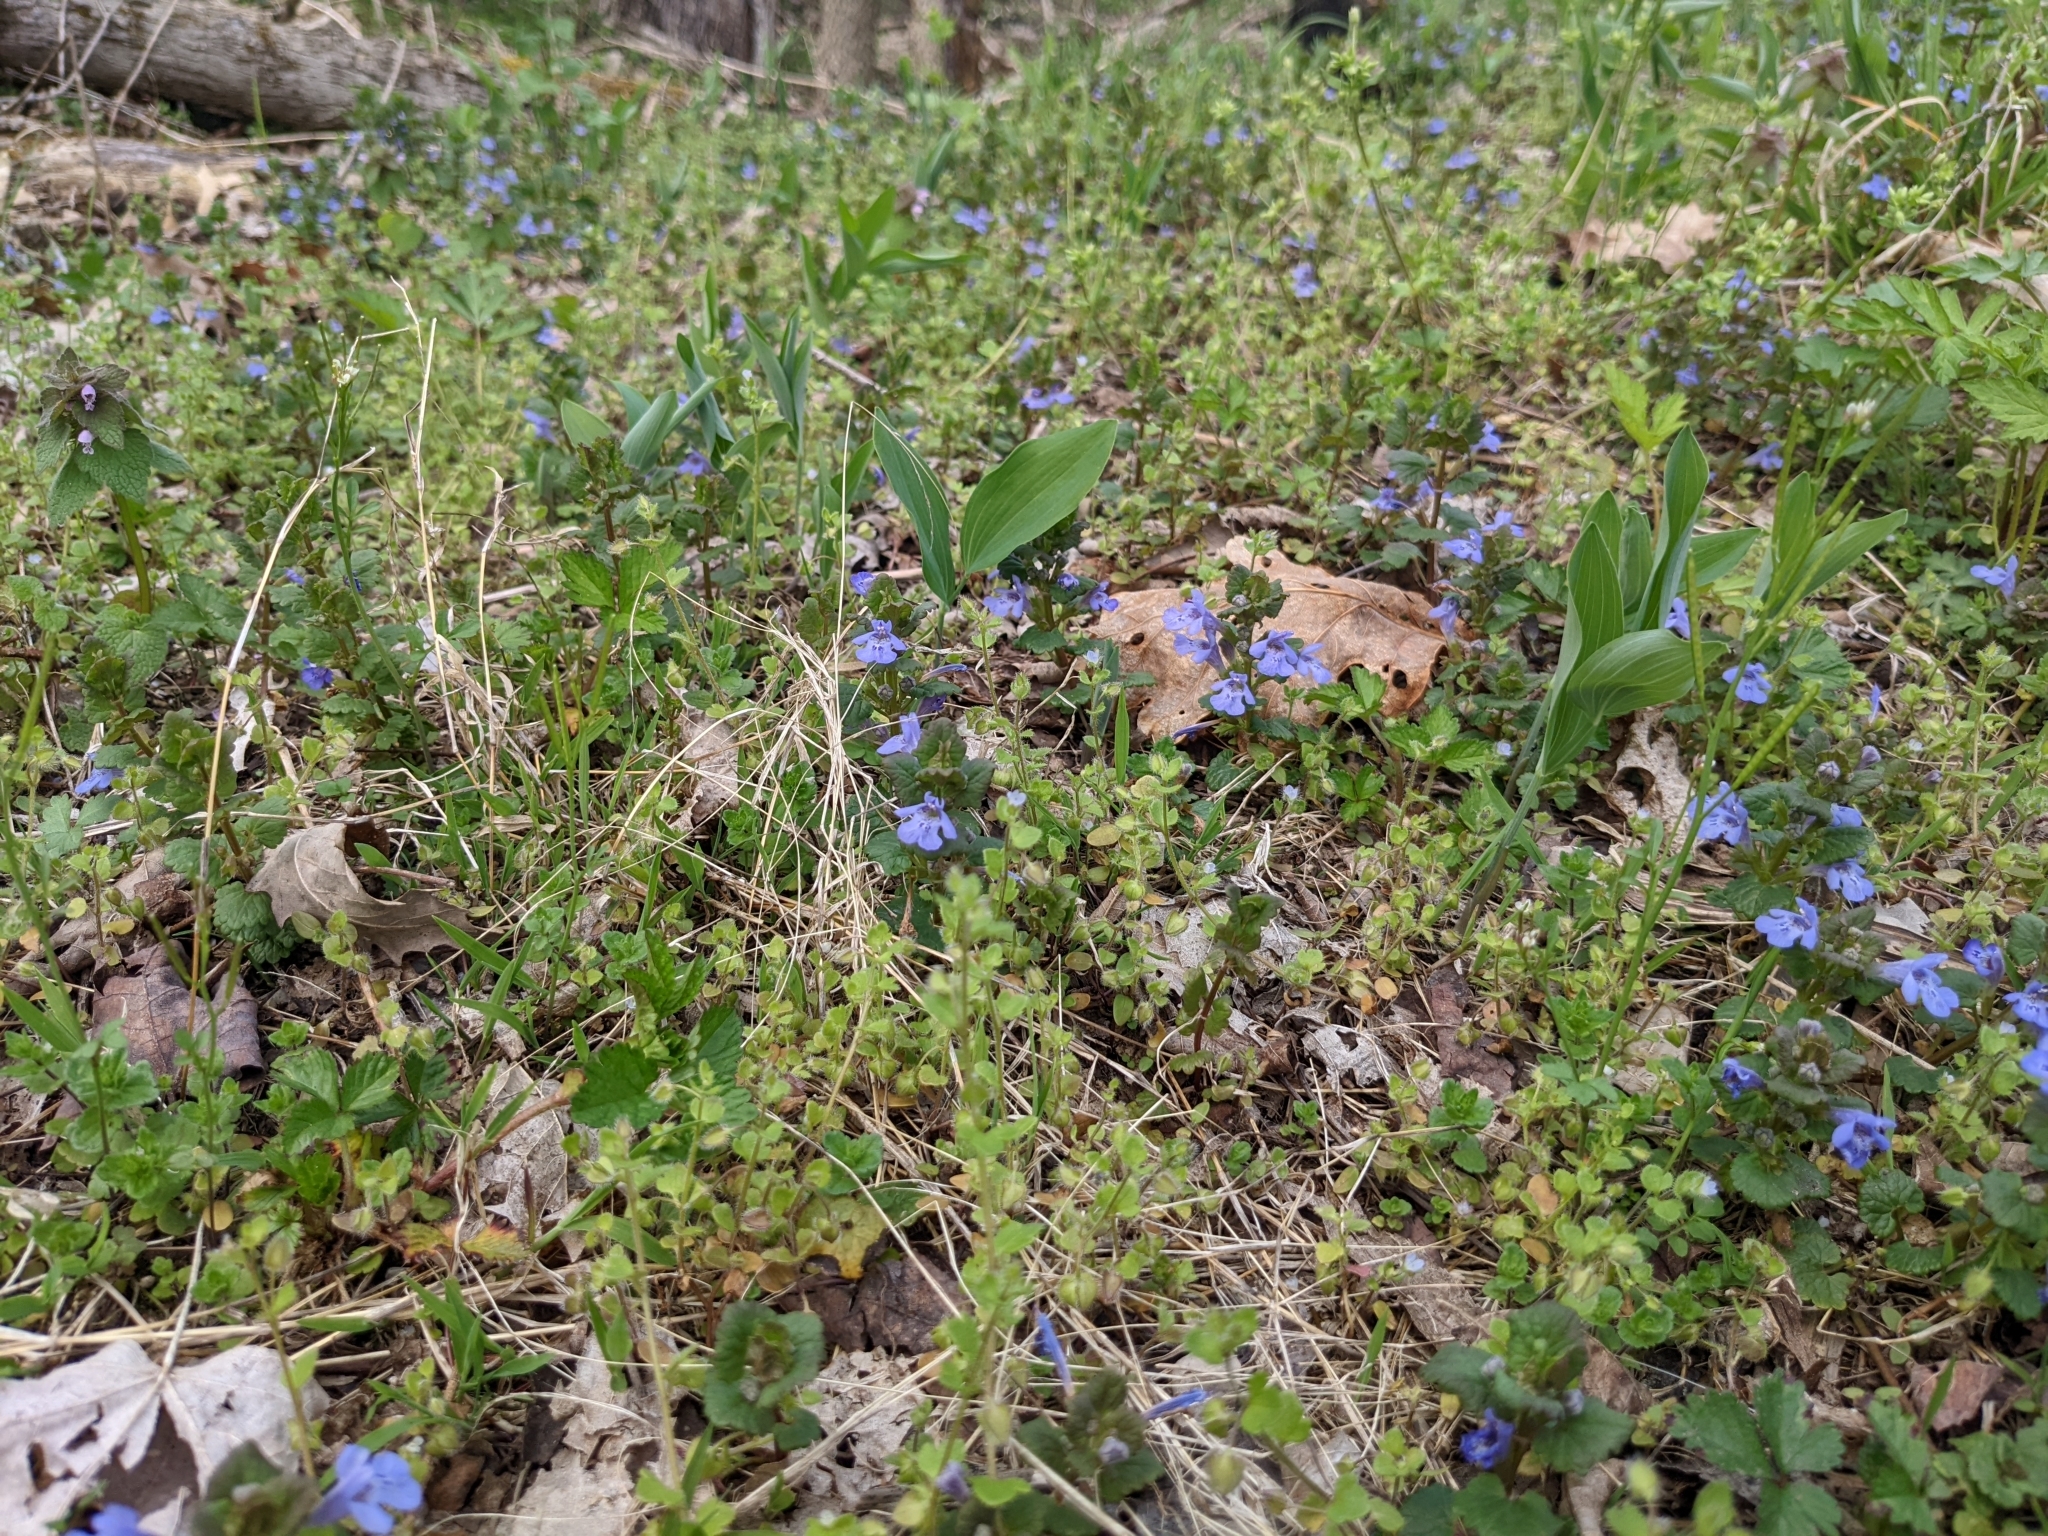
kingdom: Plantae
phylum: Tracheophyta
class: Magnoliopsida
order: Lamiales
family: Lamiaceae
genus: Glechoma
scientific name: Glechoma hederacea
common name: Ground ivy
